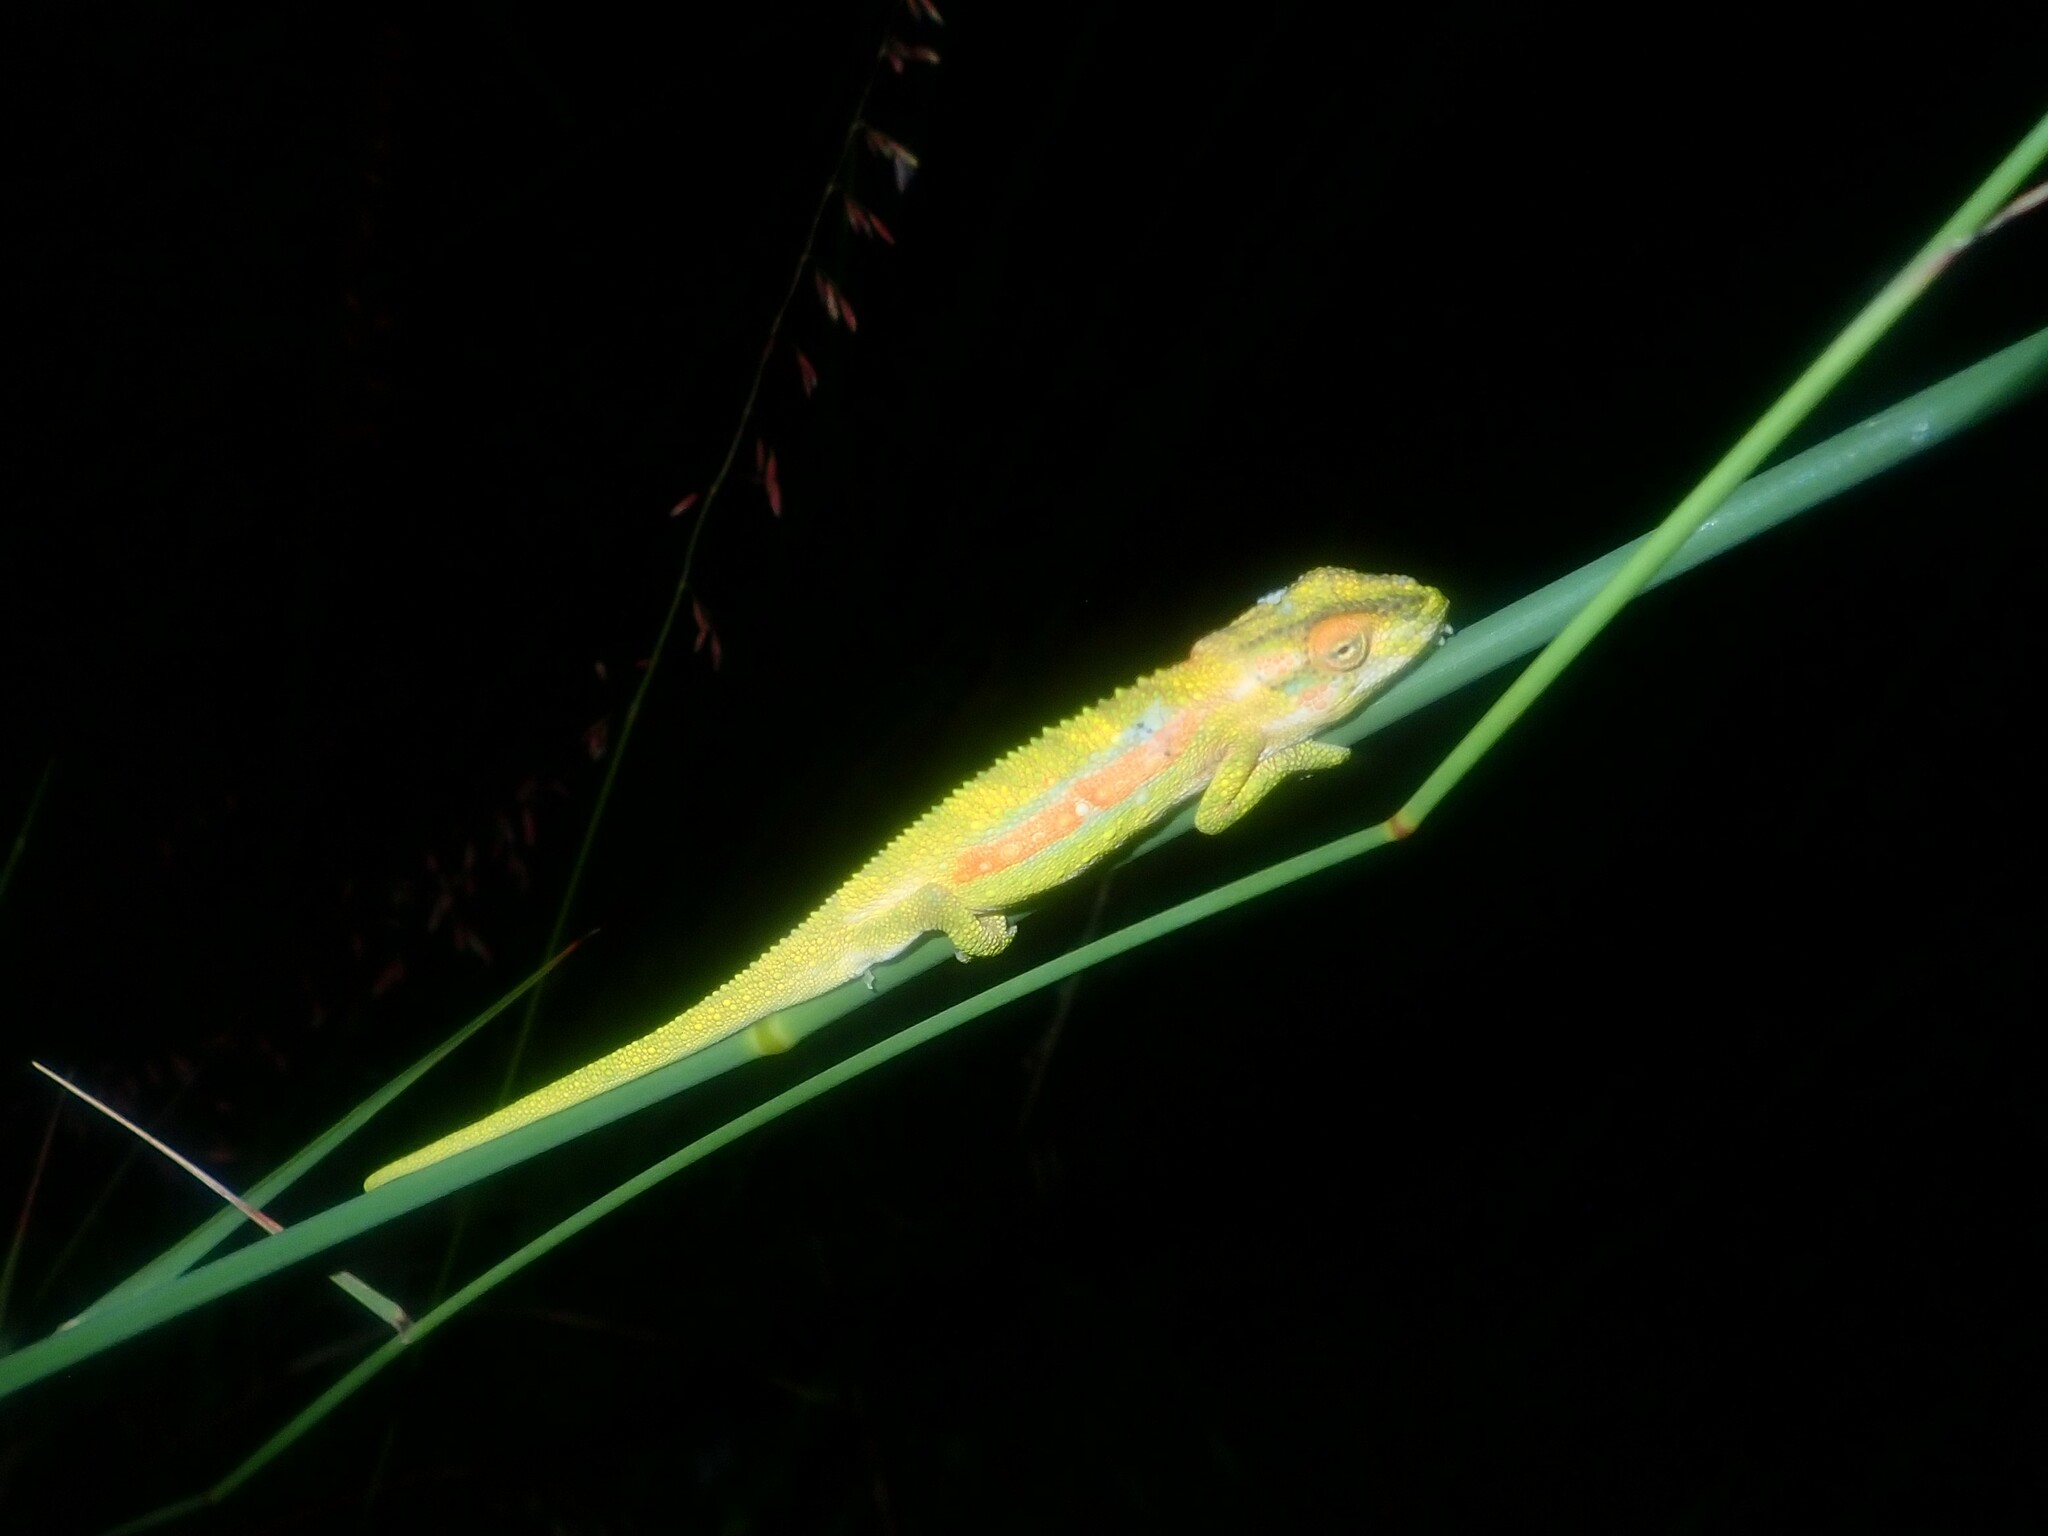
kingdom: Animalia
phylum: Chordata
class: Squamata
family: Chamaeleonidae
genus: Bradypodion
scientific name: Bradypodion pumilum
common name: Cape dwarf chameleon
